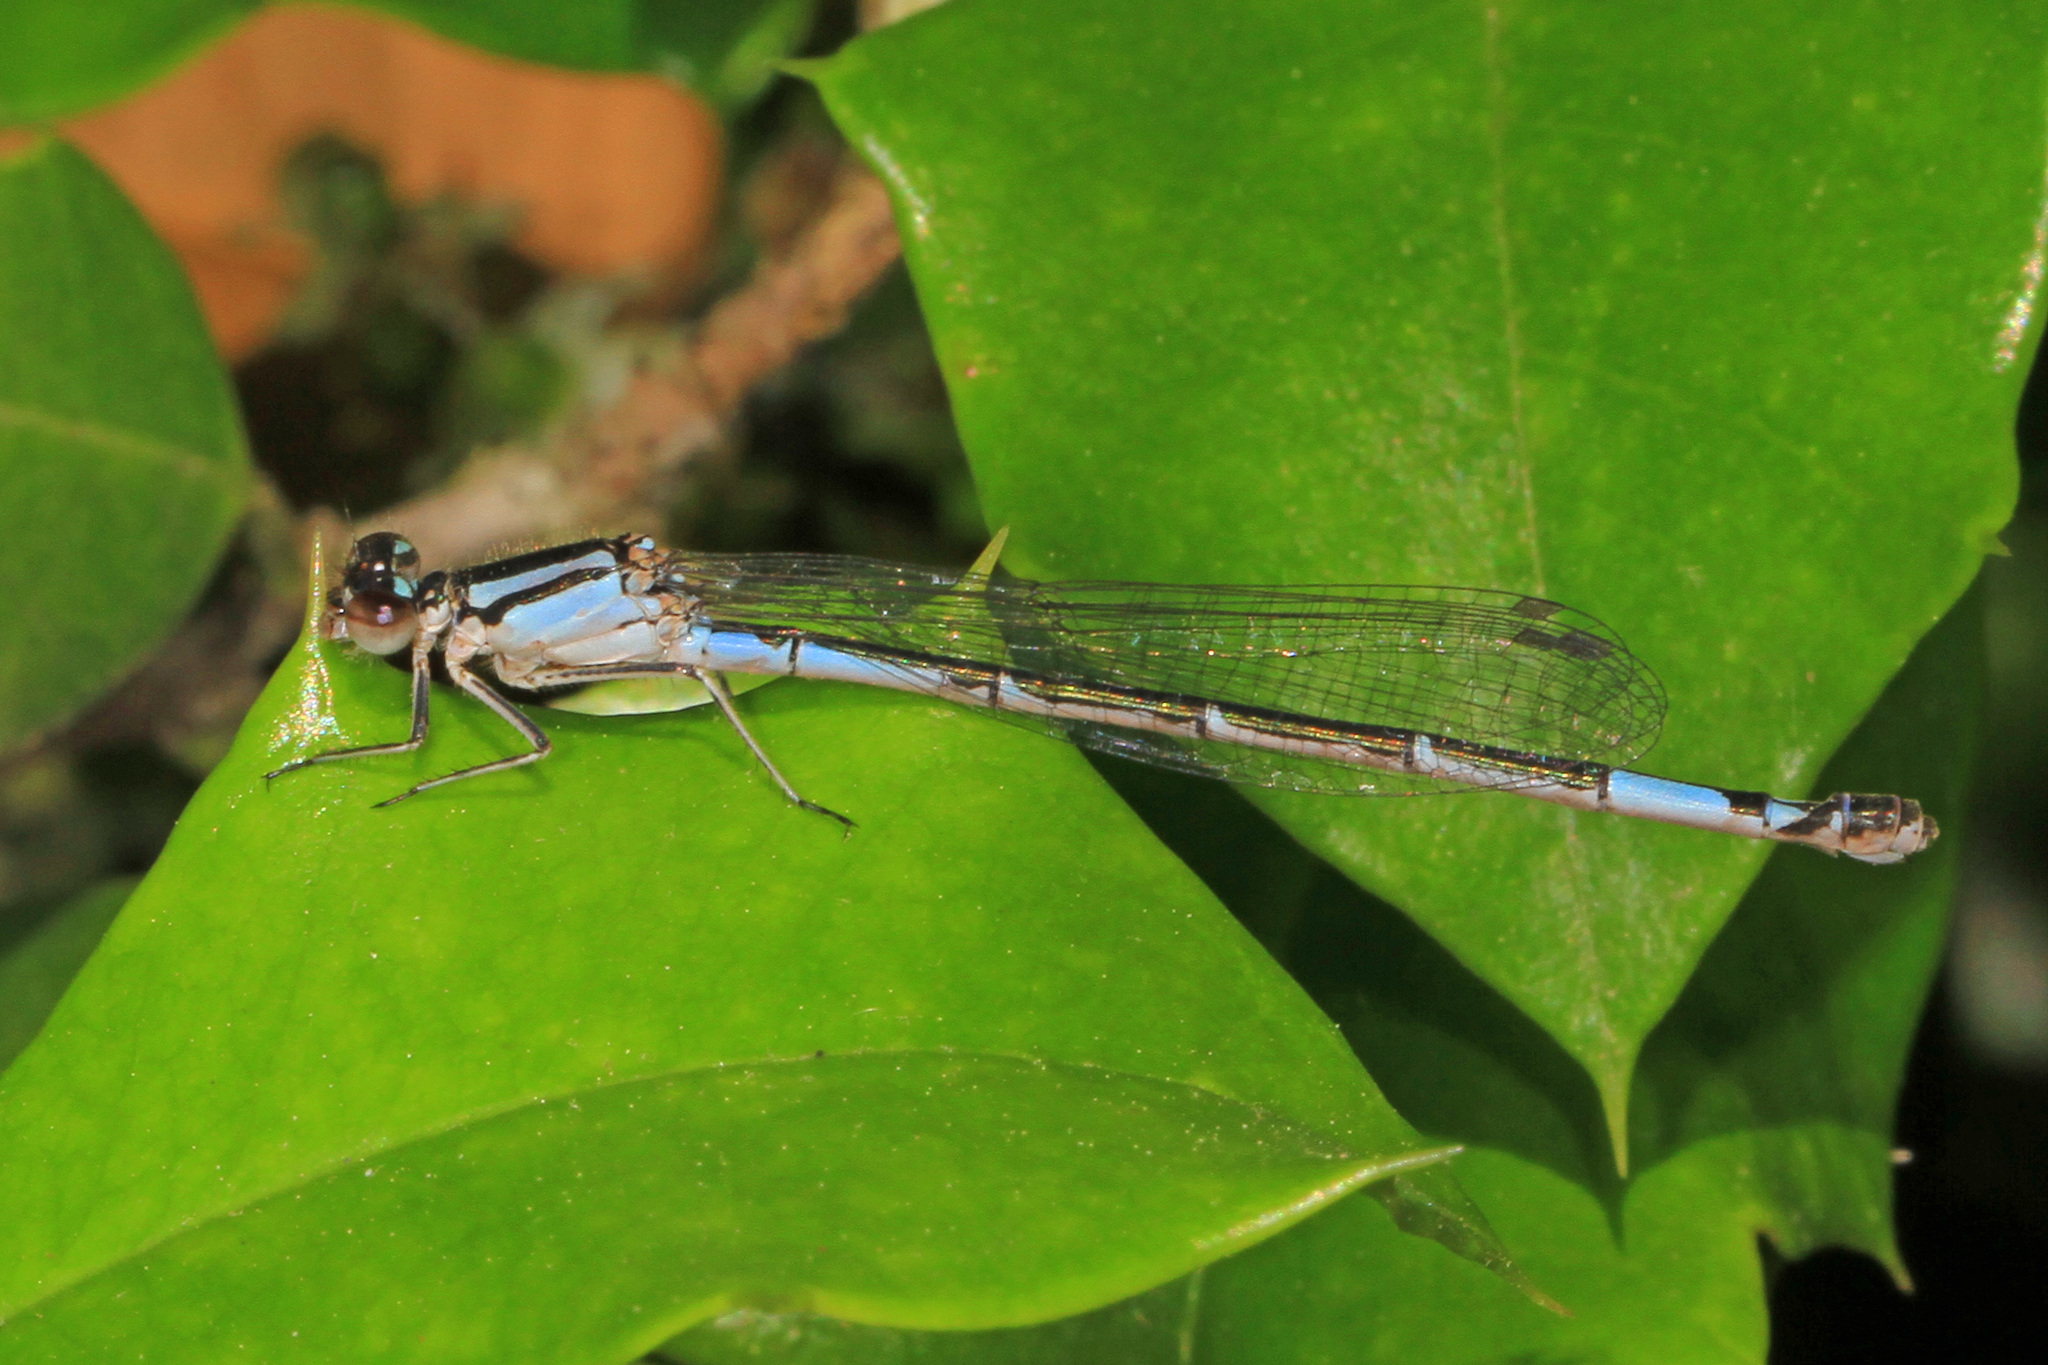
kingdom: Animalia
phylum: Arthropoda
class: Insecta
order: Odonata
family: Coenagrionidae
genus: Enallagma
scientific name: Enallagma aspersum
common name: Azure bluet
